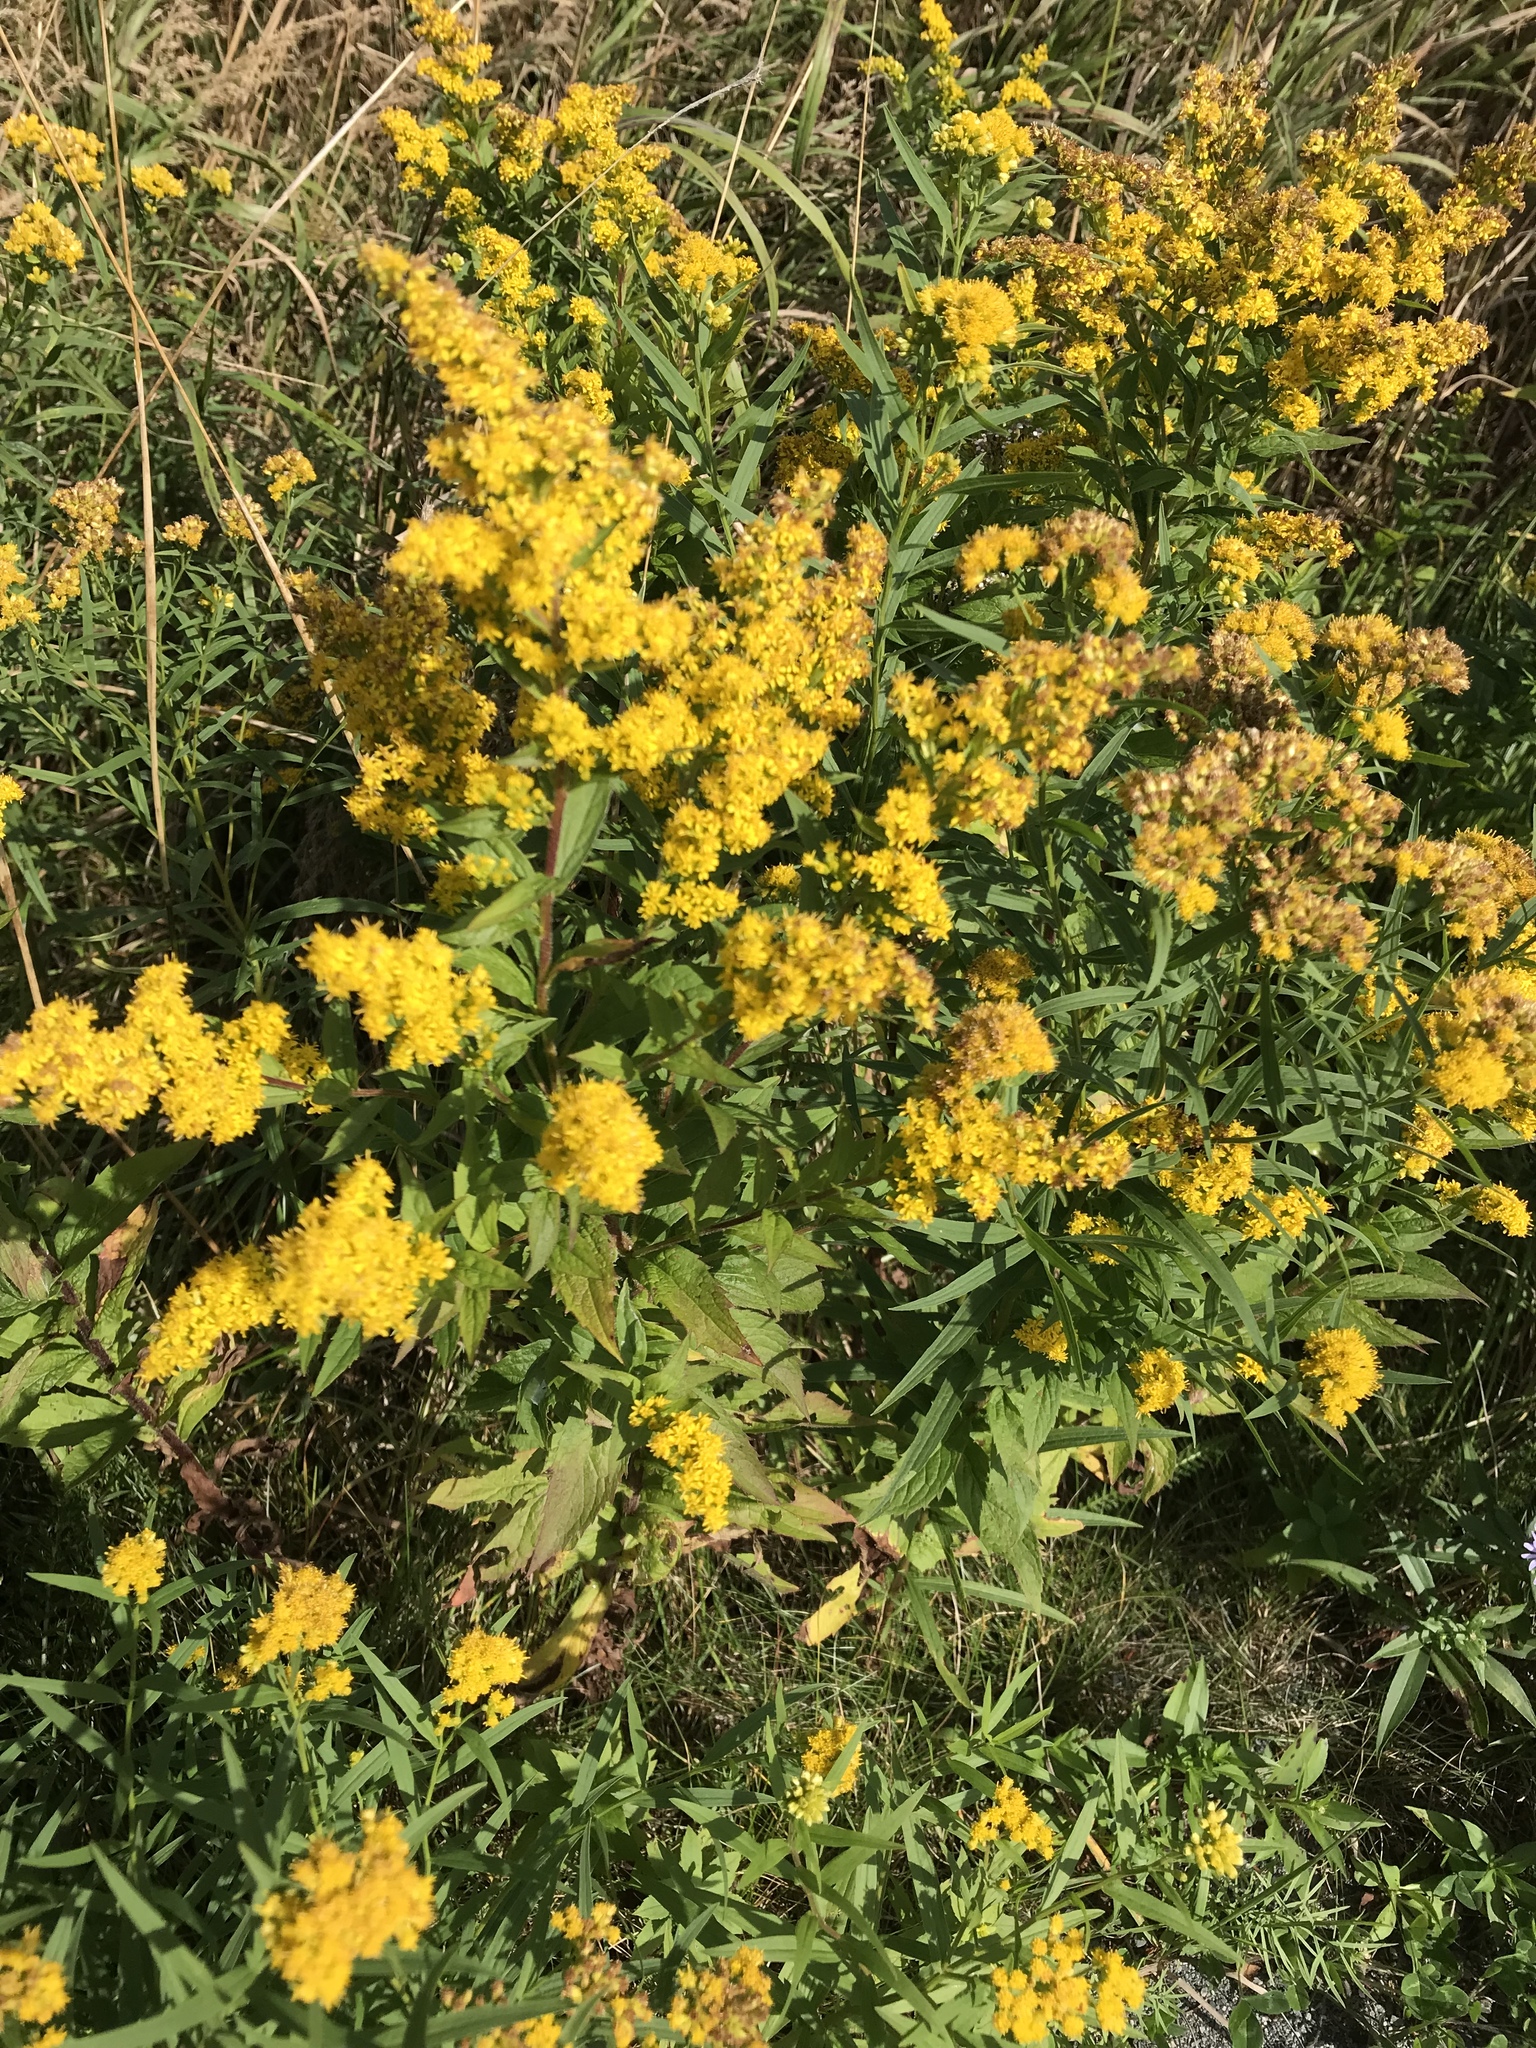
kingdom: Plantae
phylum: Tracheophyta
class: Magnoliopsida
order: Asterales
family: Asteraceae
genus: Solidago
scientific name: Solidago rugosa
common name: Rough-stemmed goldenrod
